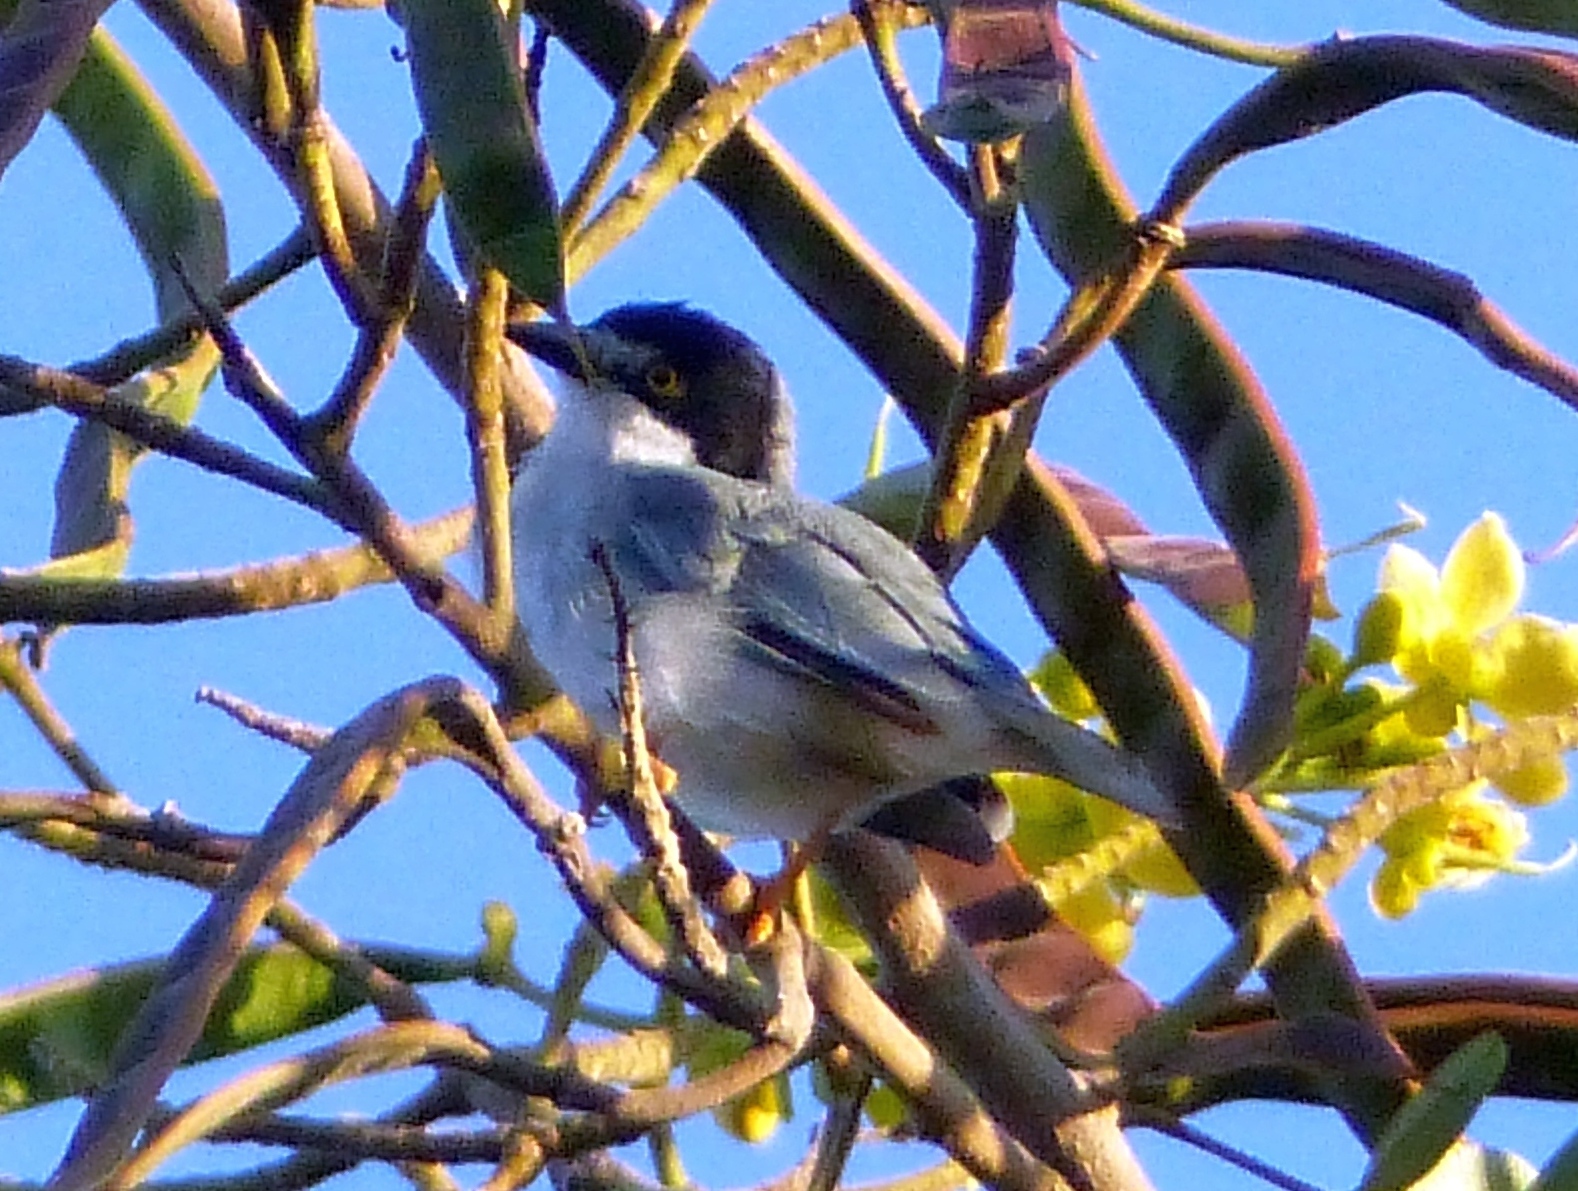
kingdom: Animalia
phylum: Chordata
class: Aves
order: Passeriformes
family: Thraupidae
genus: Nemosia
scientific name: Nemosia pileata
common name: Hooded tanager
